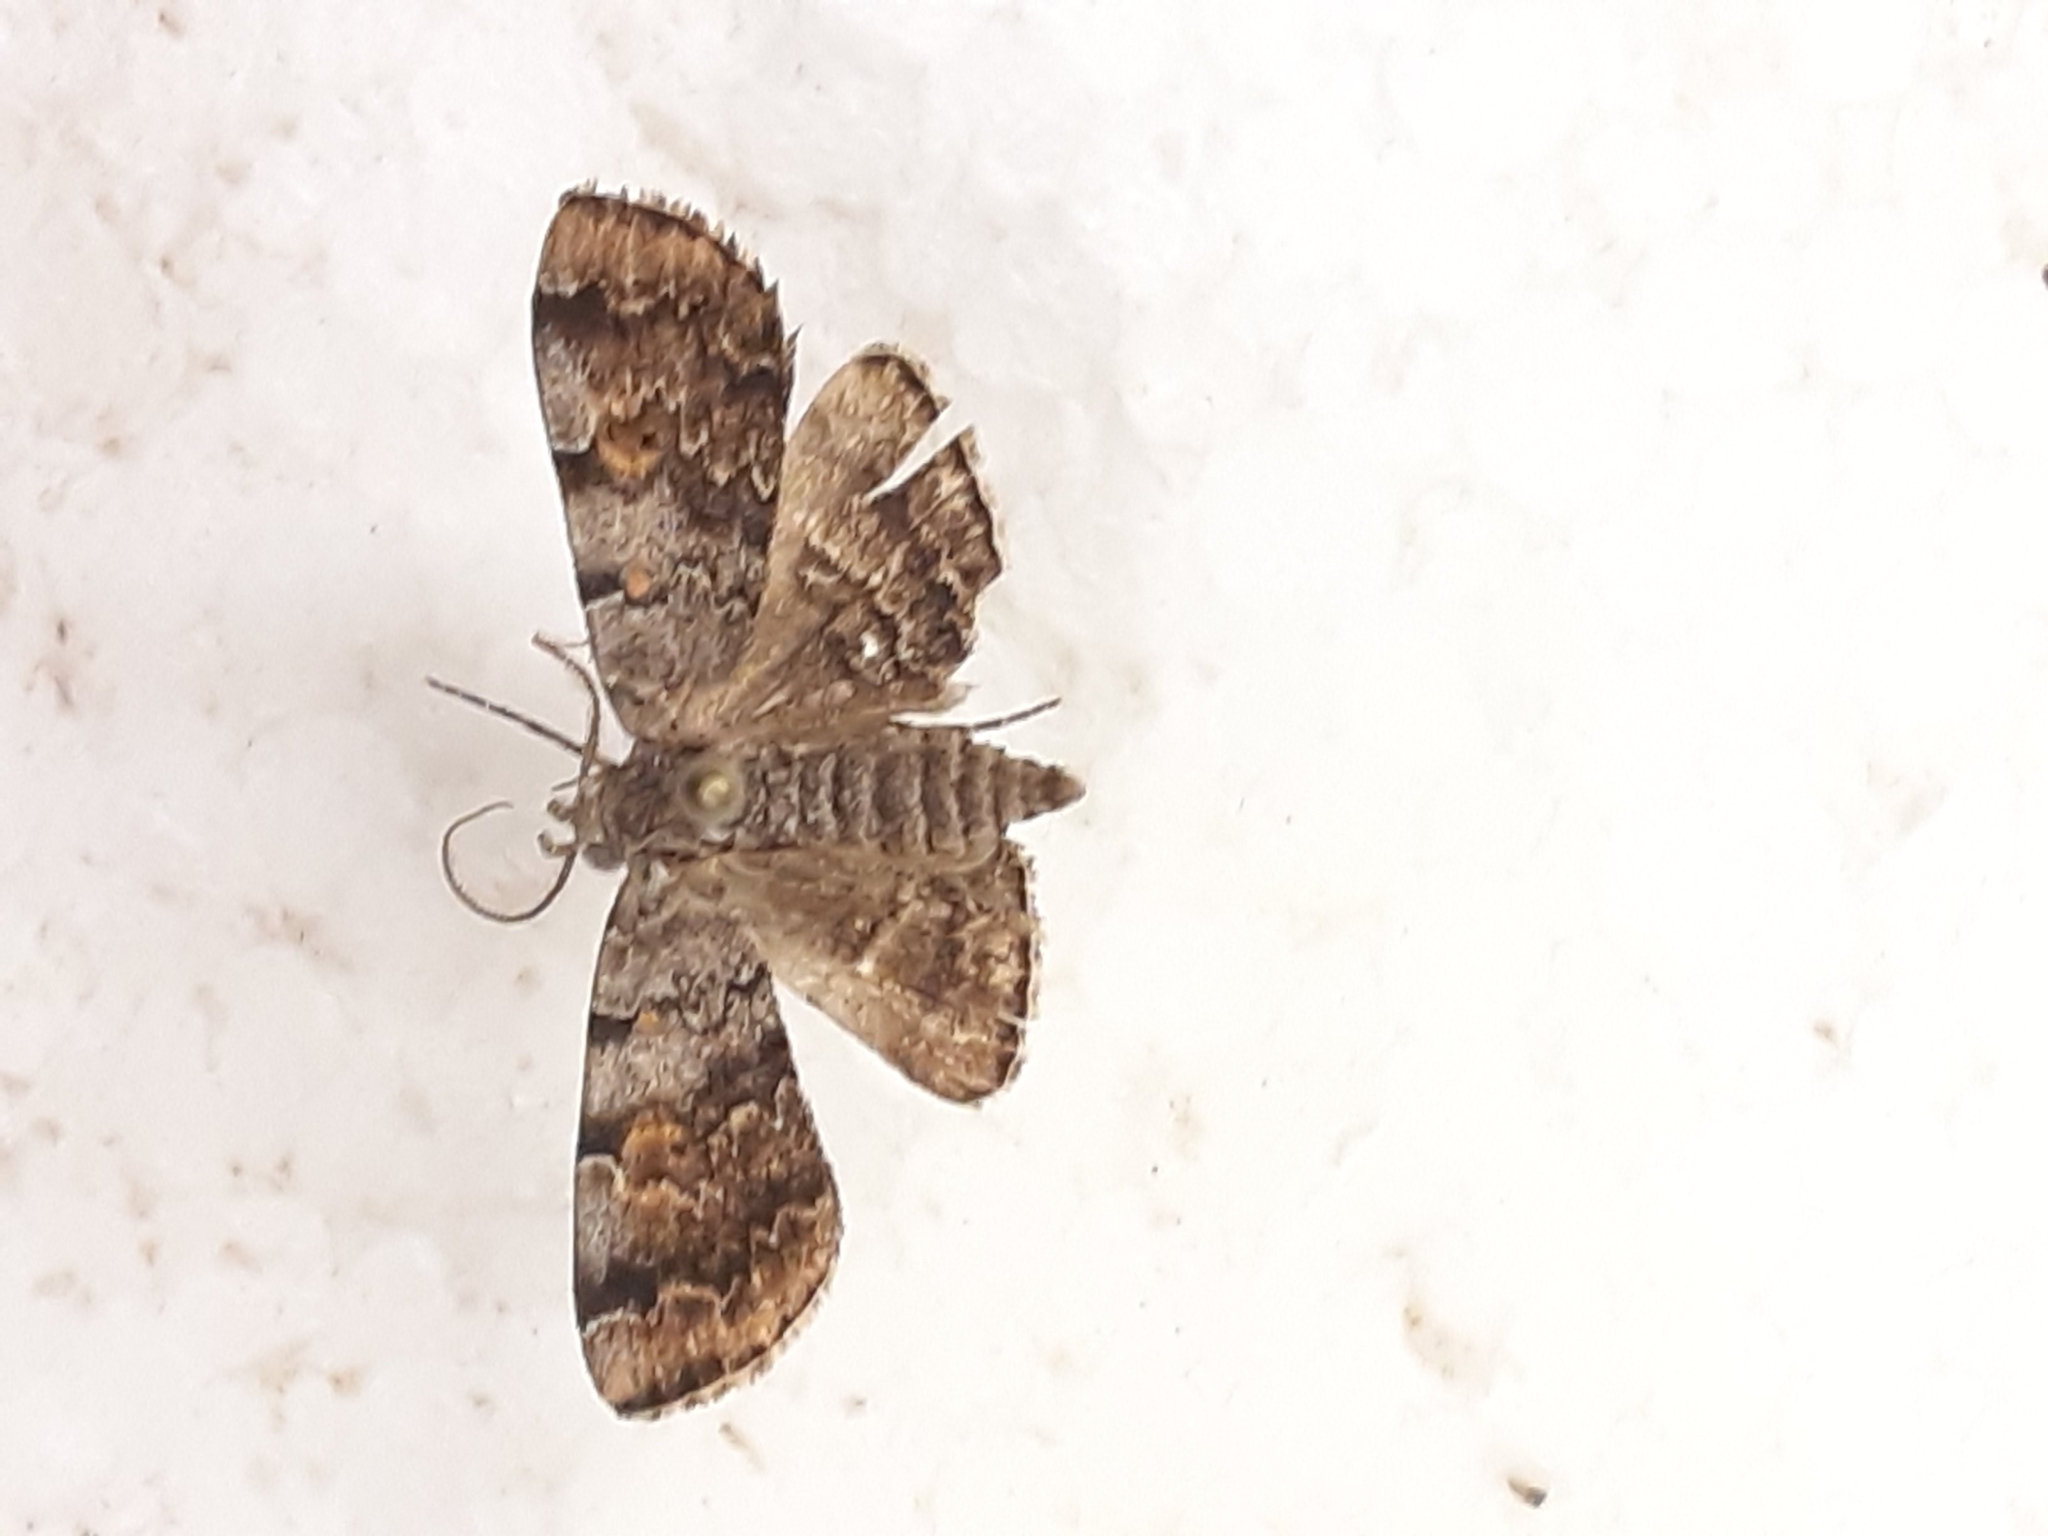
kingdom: Animalia
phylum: Arthropoda
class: Insecta
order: Lepidoptera
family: Erebidae
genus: Idia
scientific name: Idia americalis
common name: American idia moth
